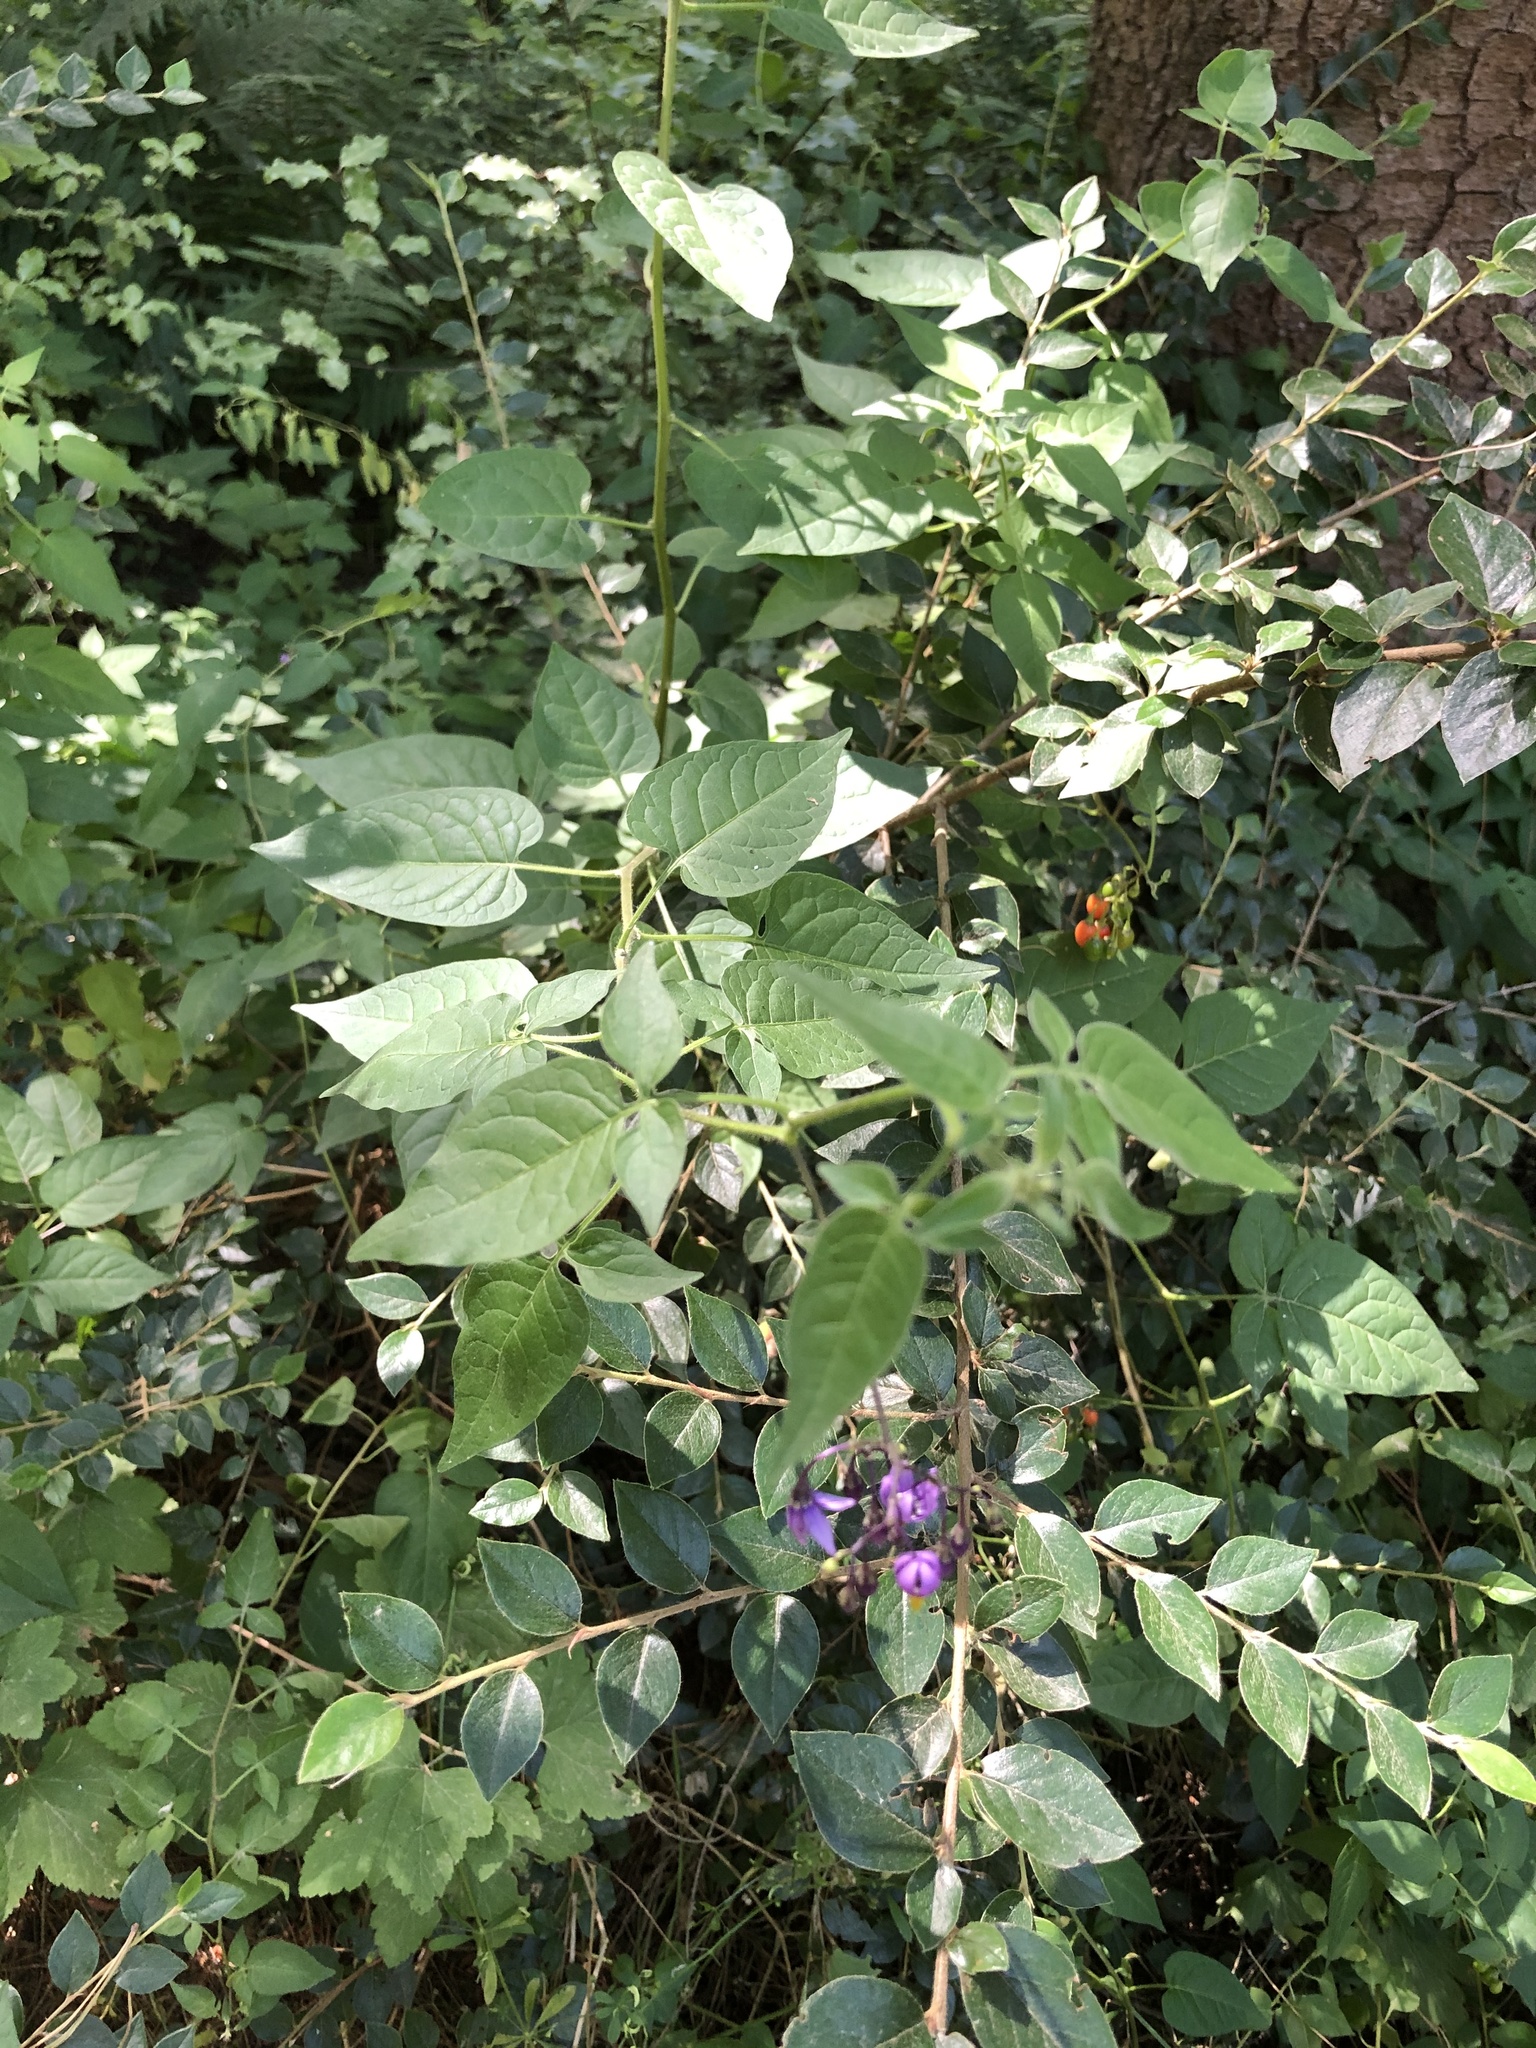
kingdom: Plantae
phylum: Tracheophyta
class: Magnoliopsida
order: Solanales
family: Solanaceae
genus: Solanum
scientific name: Solanum dulcamara
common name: Climbing nightshade
